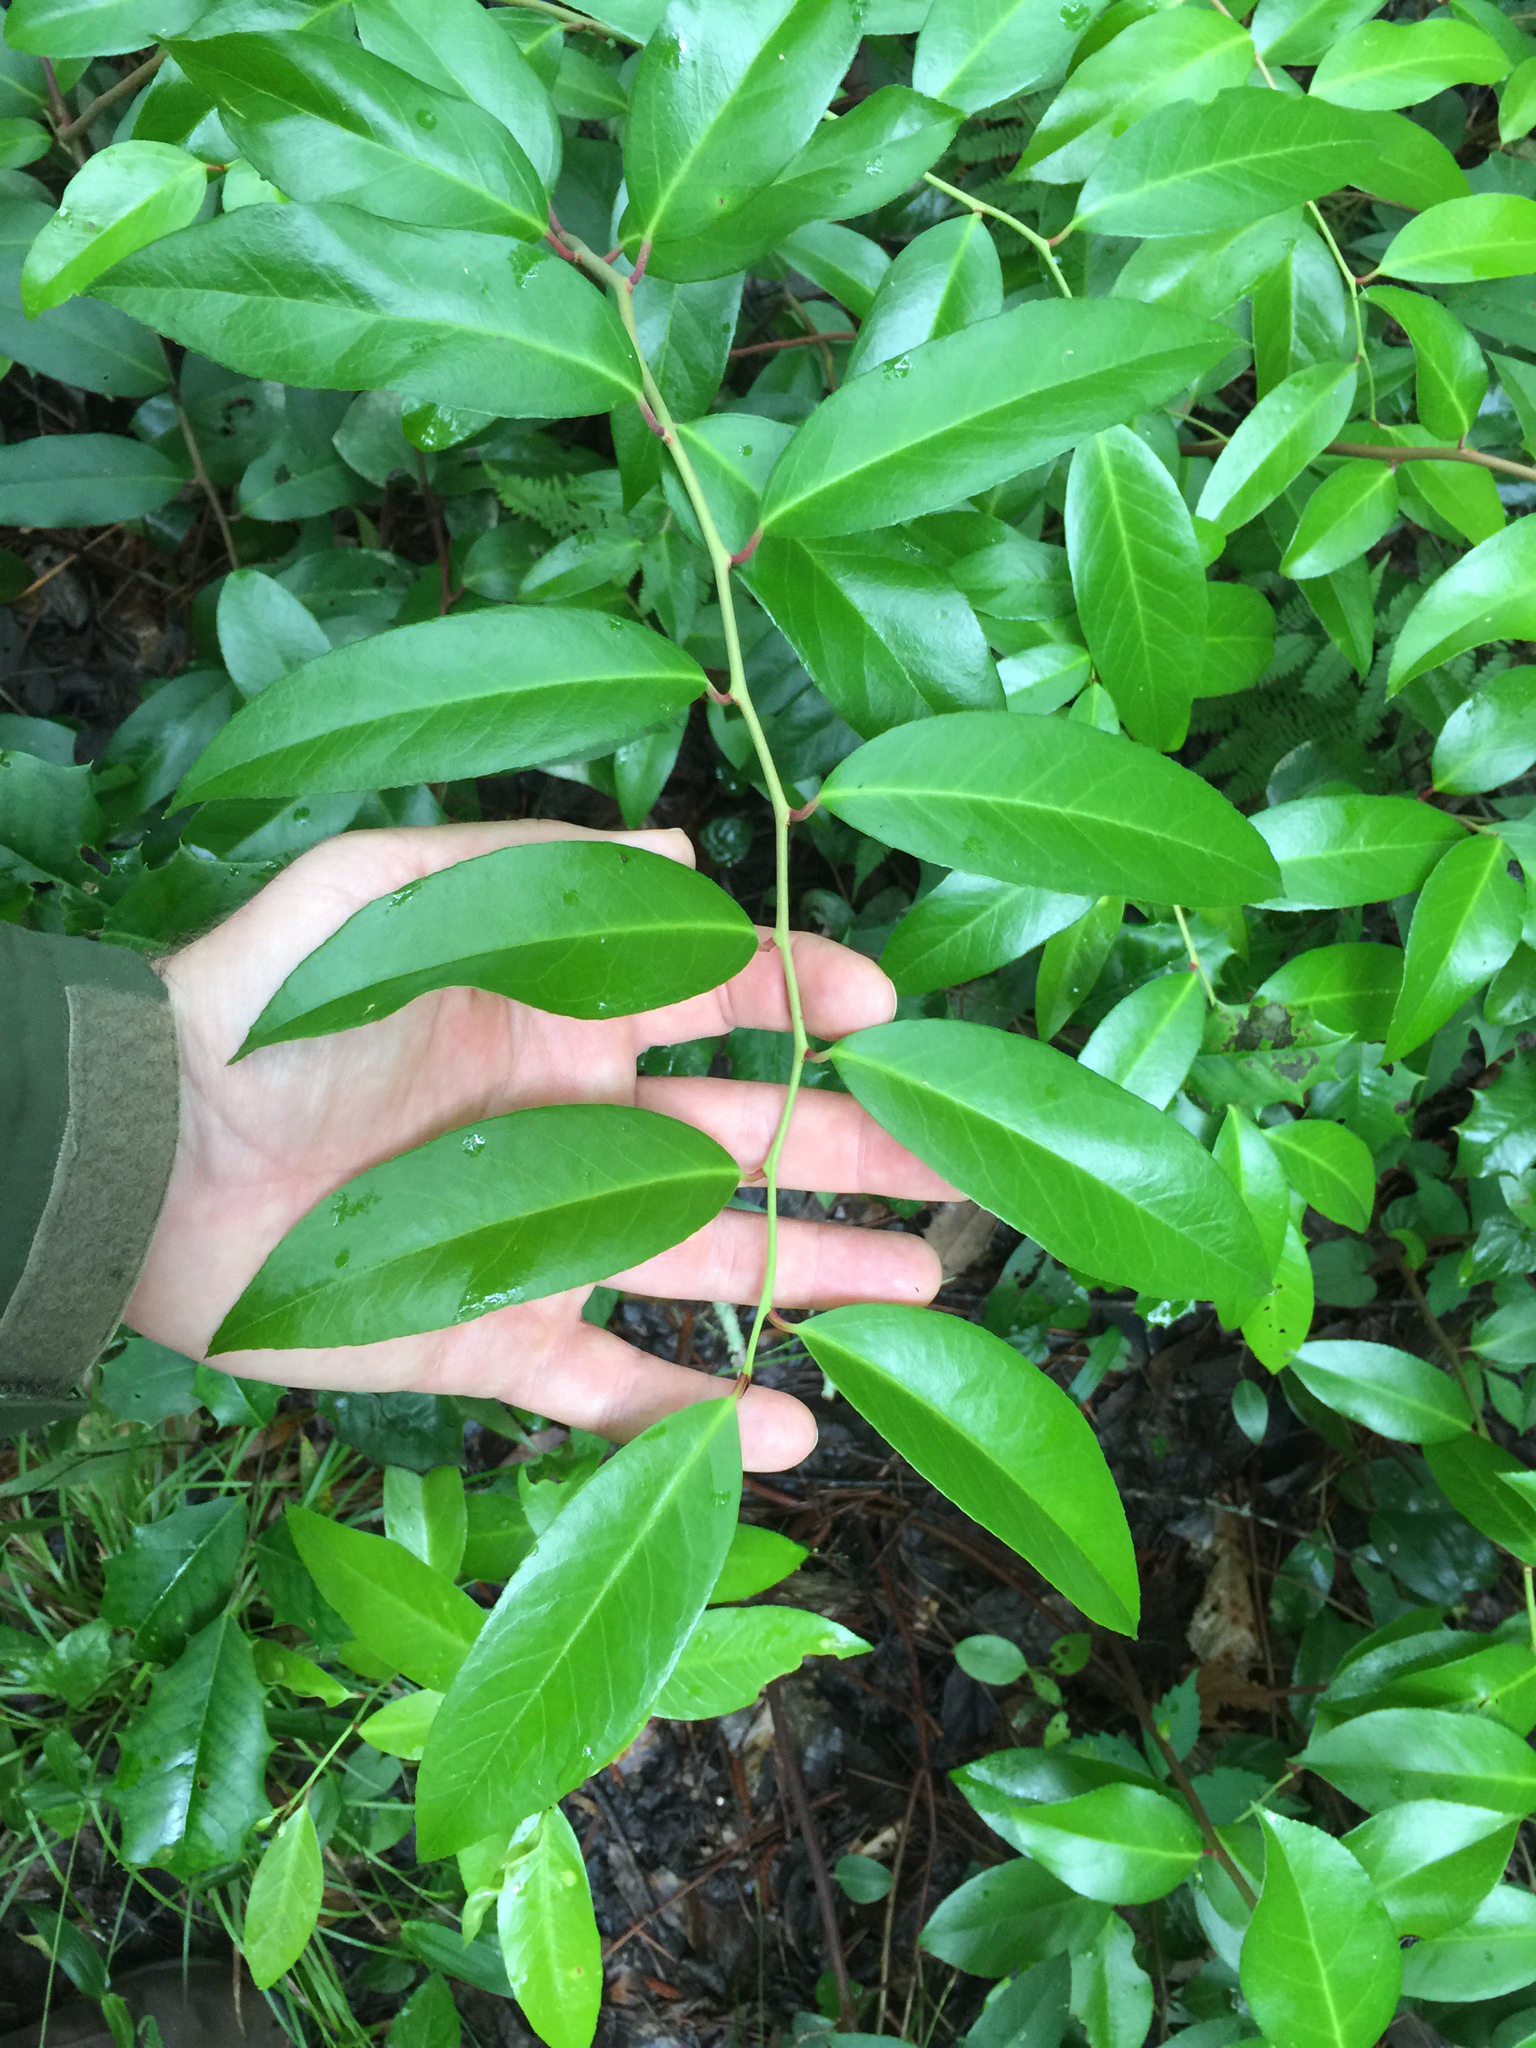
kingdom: Plantae
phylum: Tracheophyta
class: Magnoliopsida
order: Ericales
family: Ericaceae
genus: Leucothoe
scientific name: Leucothoe axillaris
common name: Leucothoe
